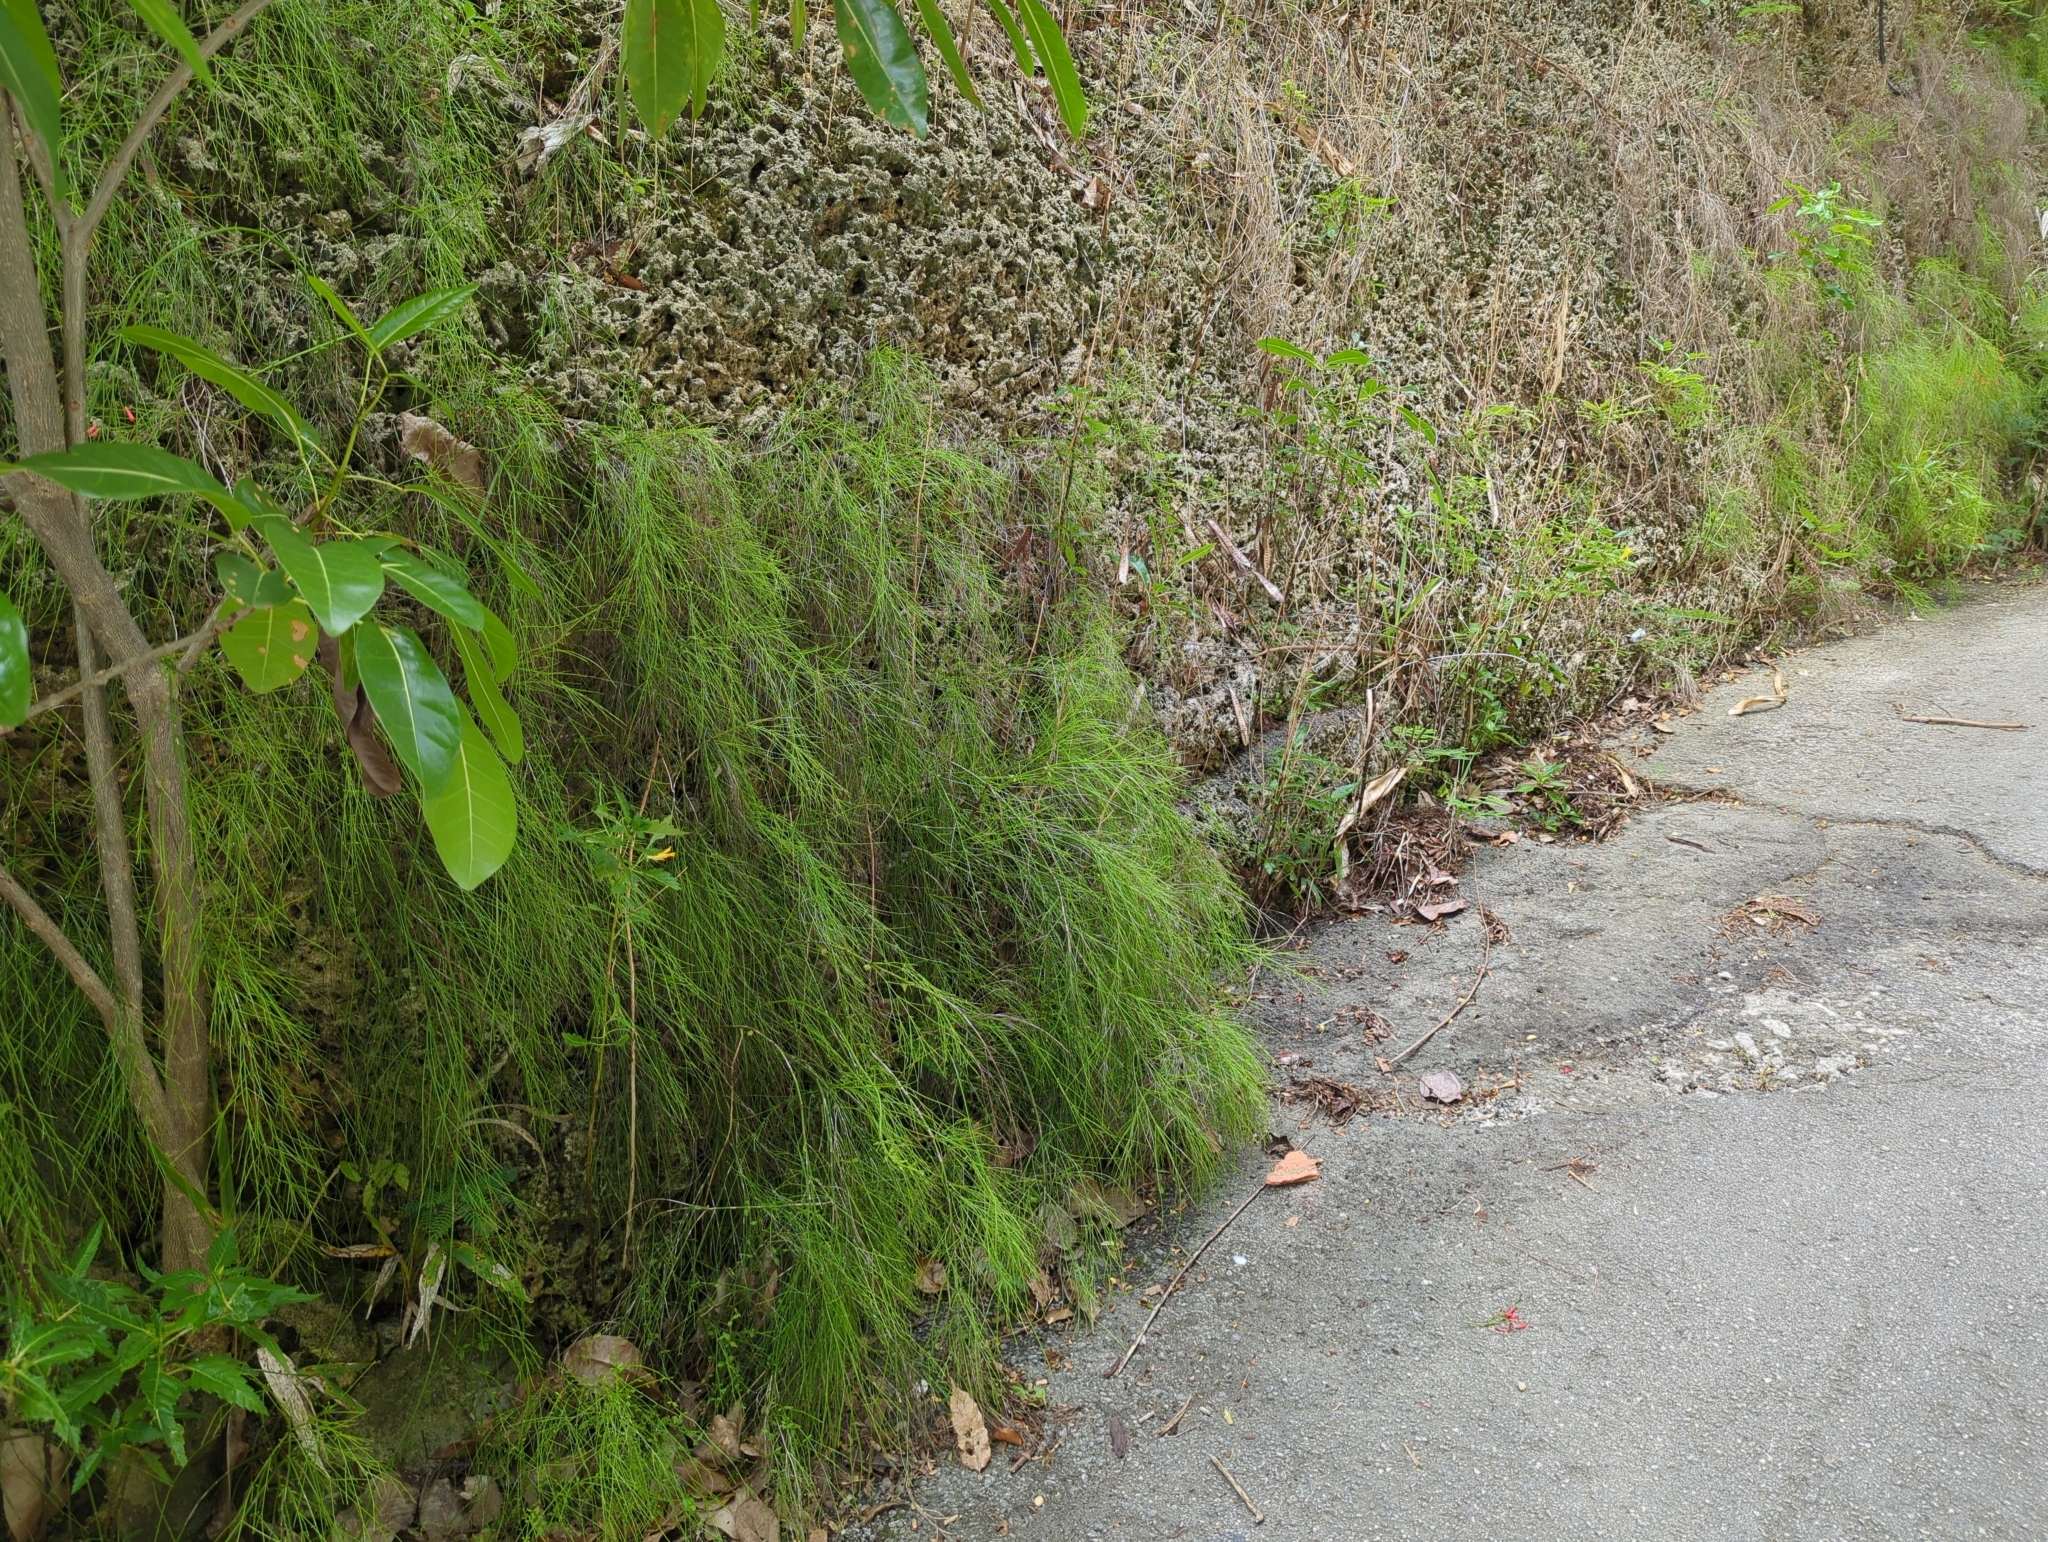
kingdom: Plantae
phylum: Tracheophyta
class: Magnoliopsida
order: Lamiales
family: Plantaginaceae
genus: Russelia
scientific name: Russelia equisetiformis
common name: Fountainbush
